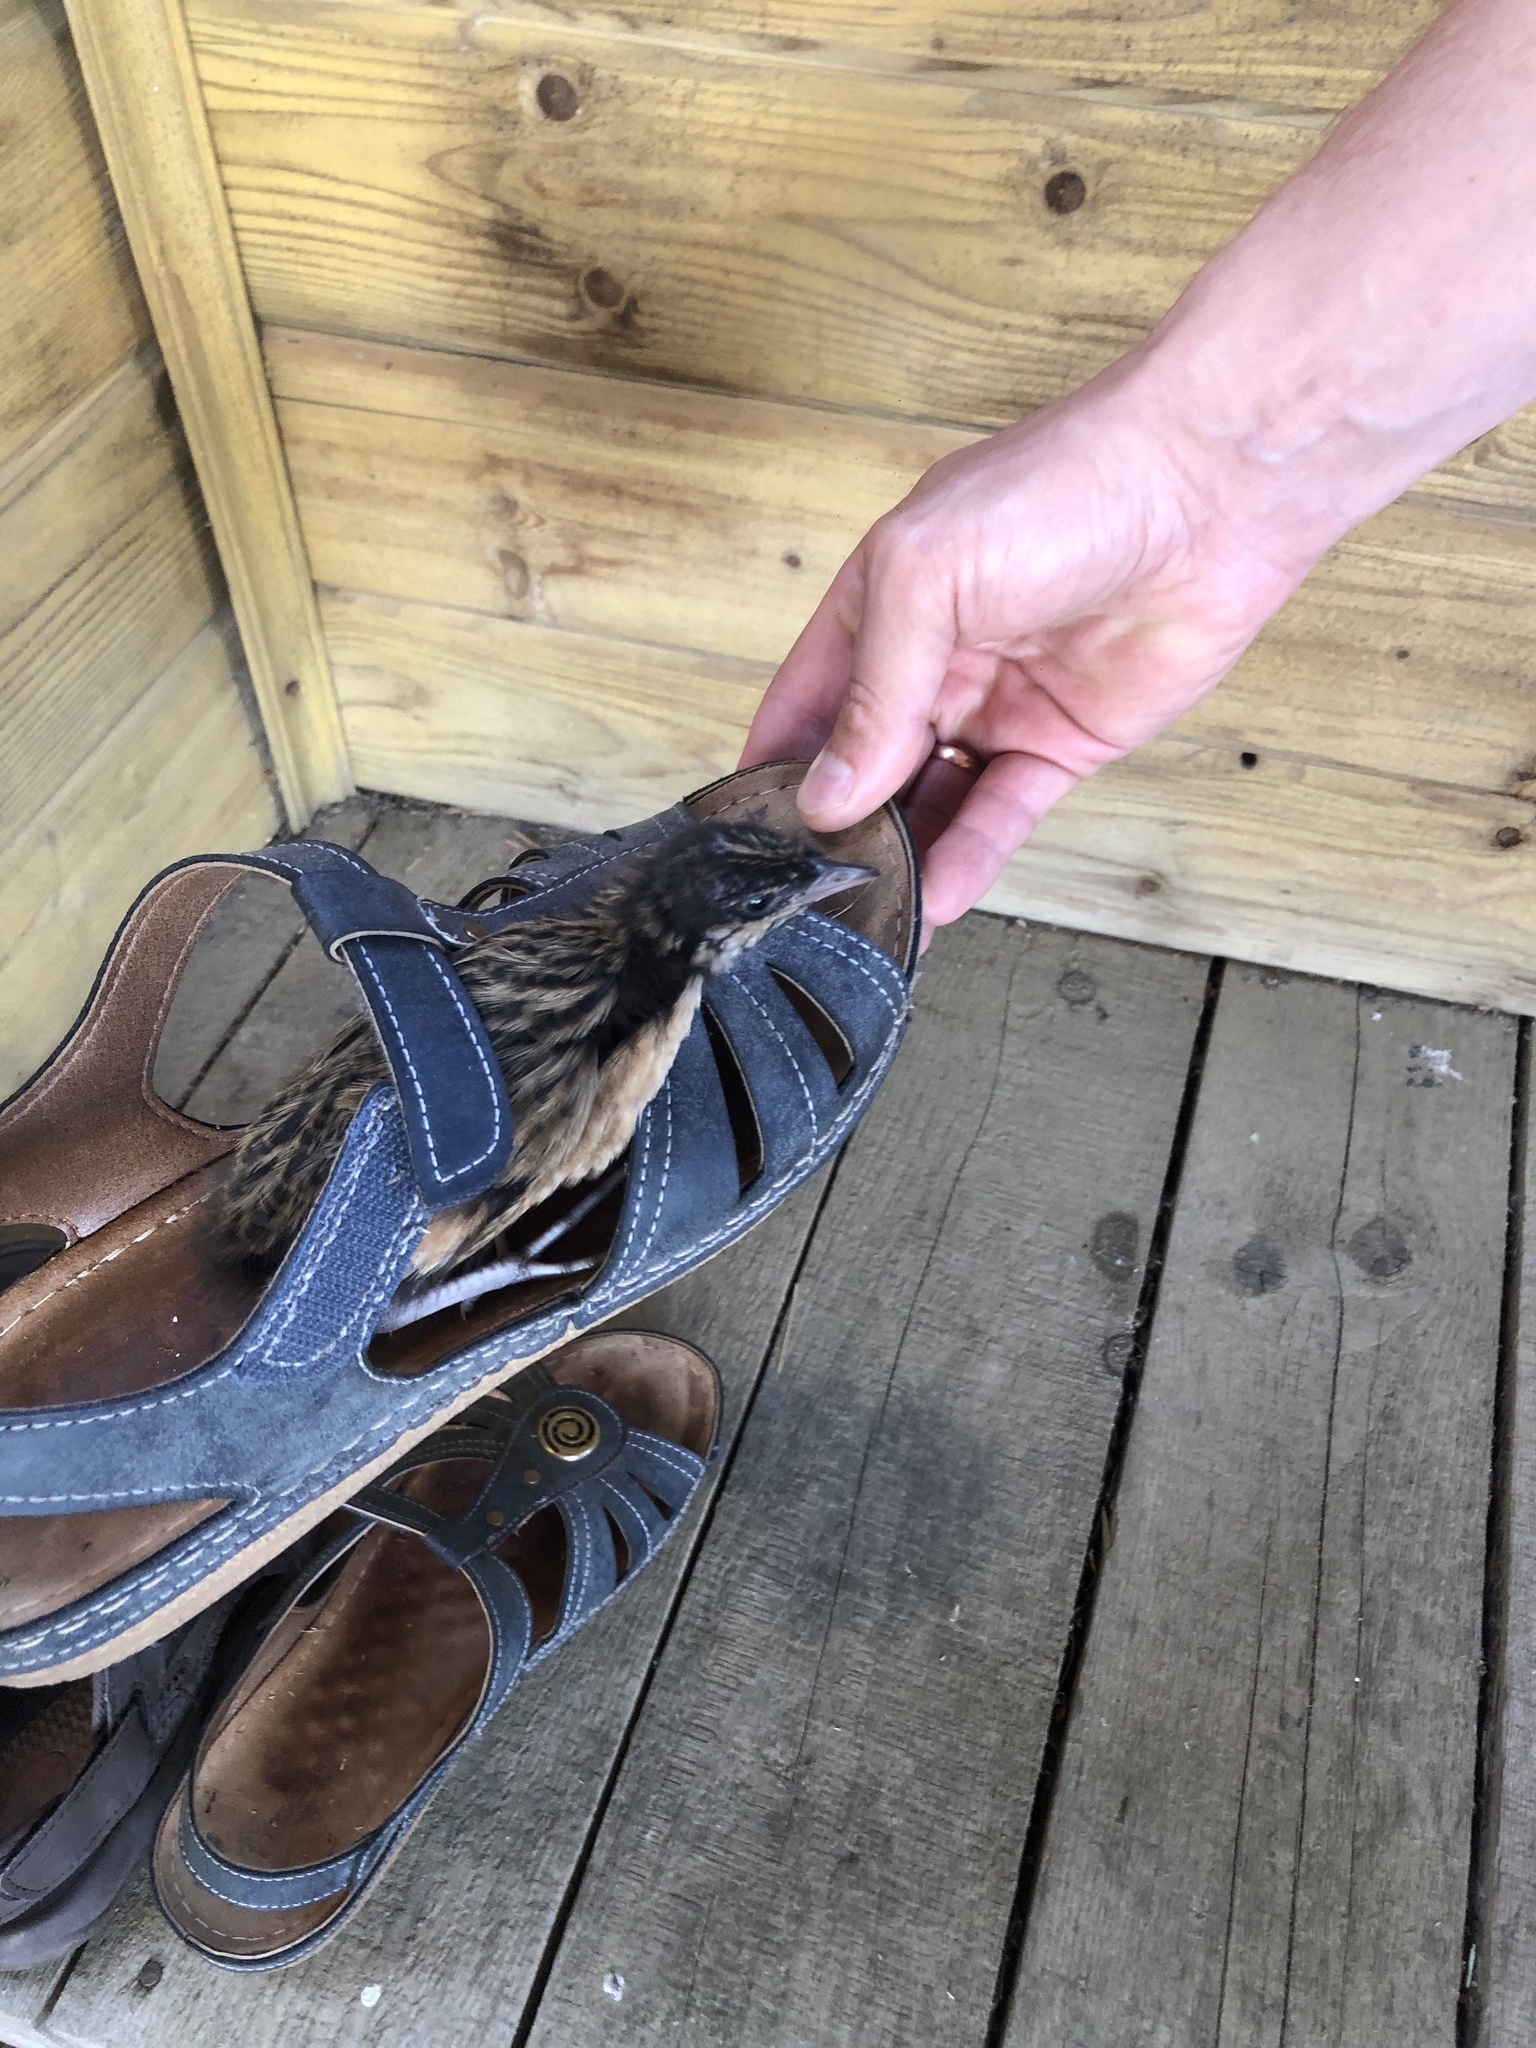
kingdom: Animalia
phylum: Chordata
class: Aves
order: Gruiformes
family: Rallidae
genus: Crex
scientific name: Crex crex
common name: Corn crake
